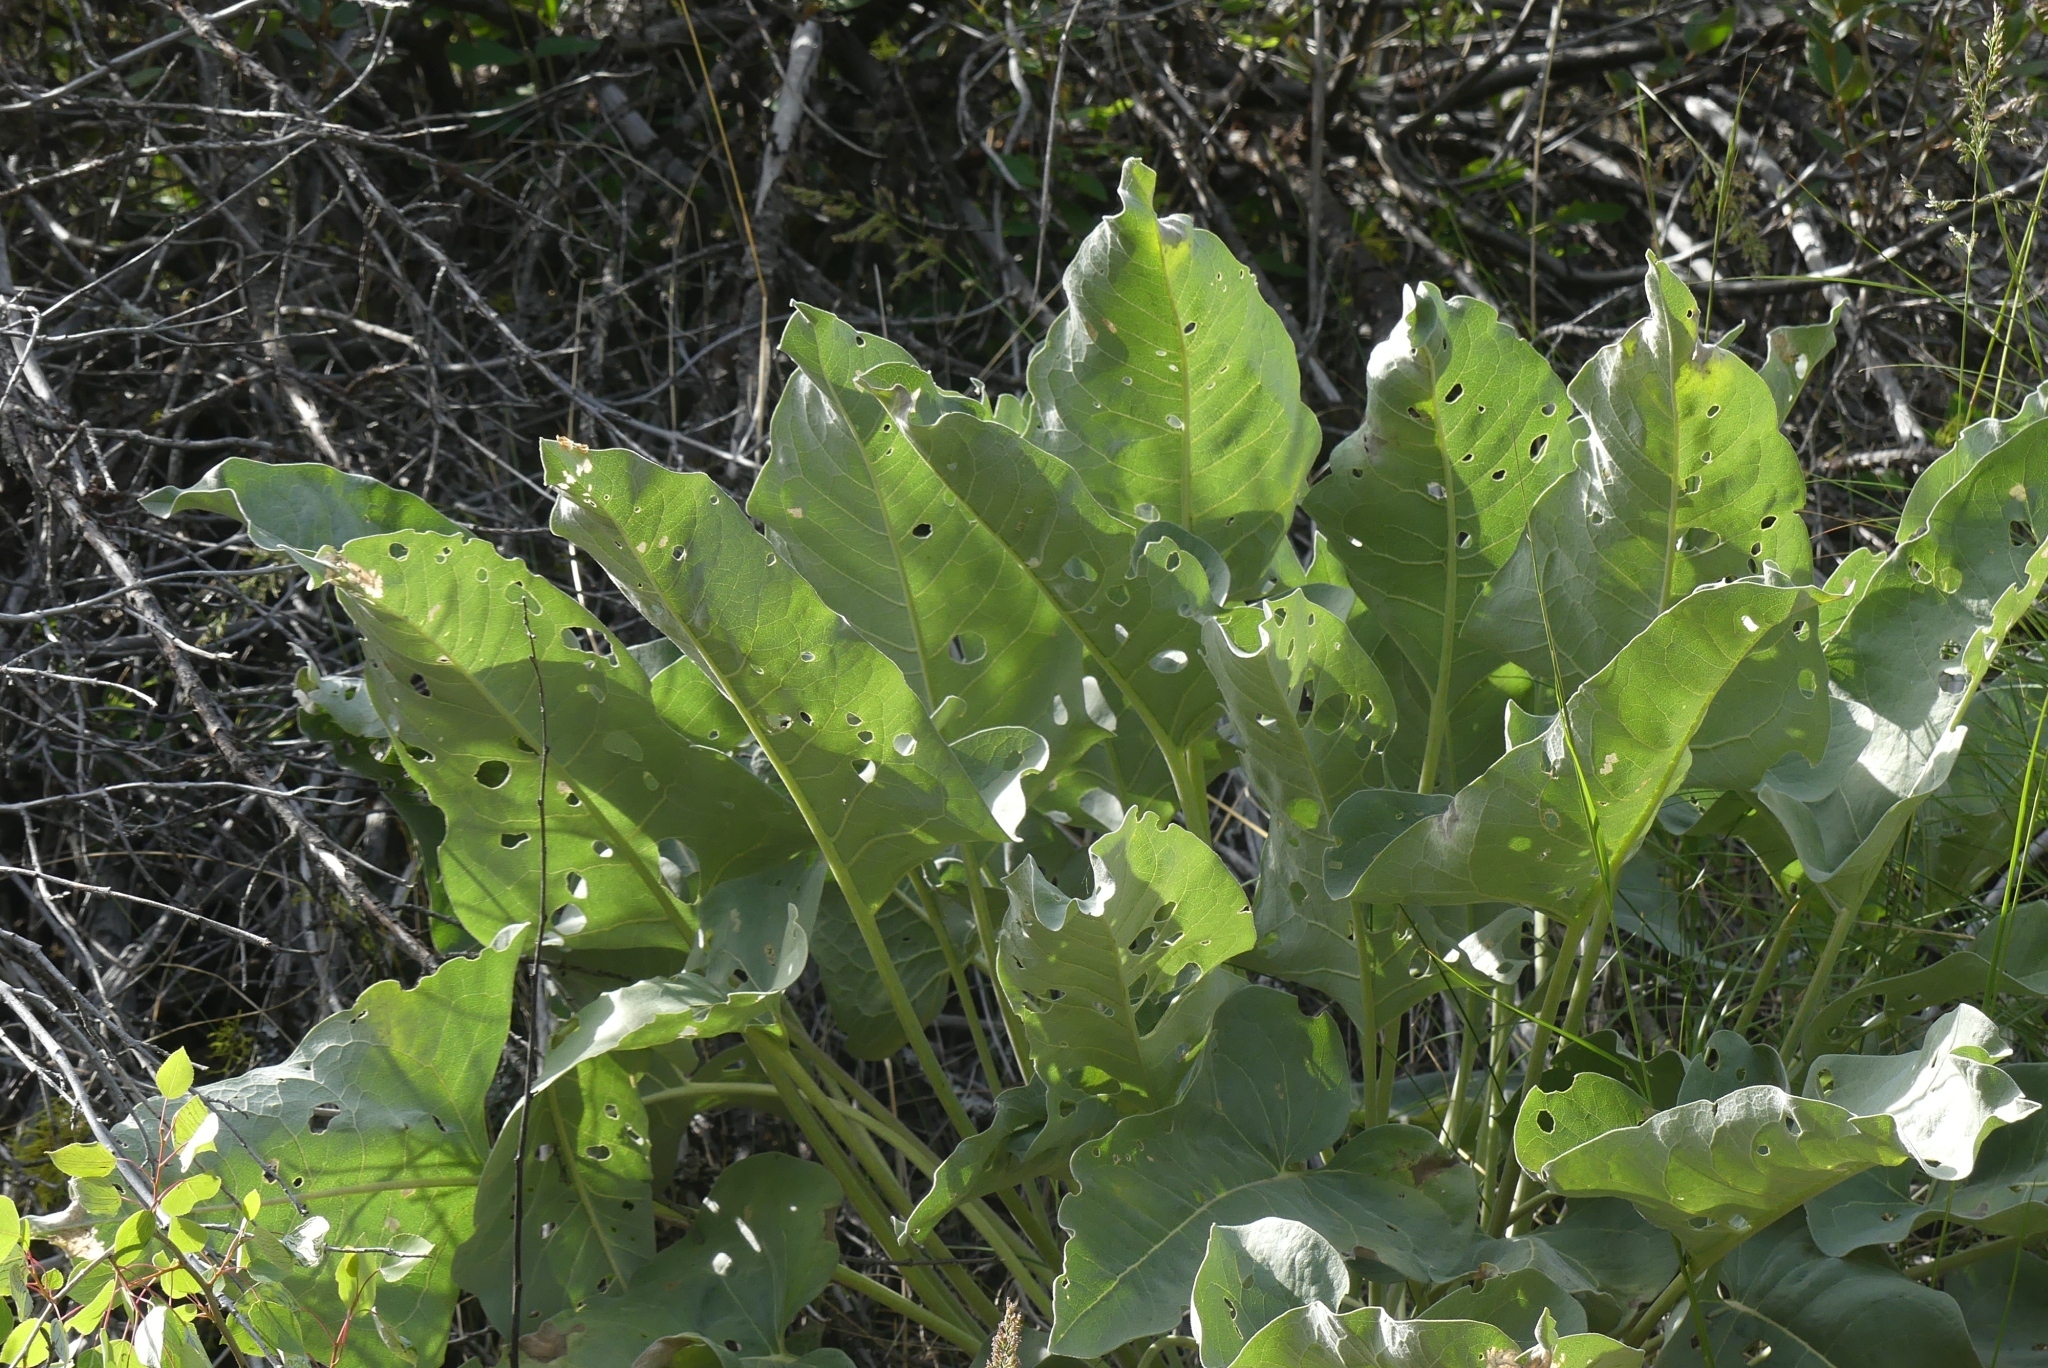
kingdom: Plantae
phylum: Tracheophyta
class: Magnoliopsida
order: Asterales
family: Asteraceae
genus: Wyethia
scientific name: Wyethia sagittata
